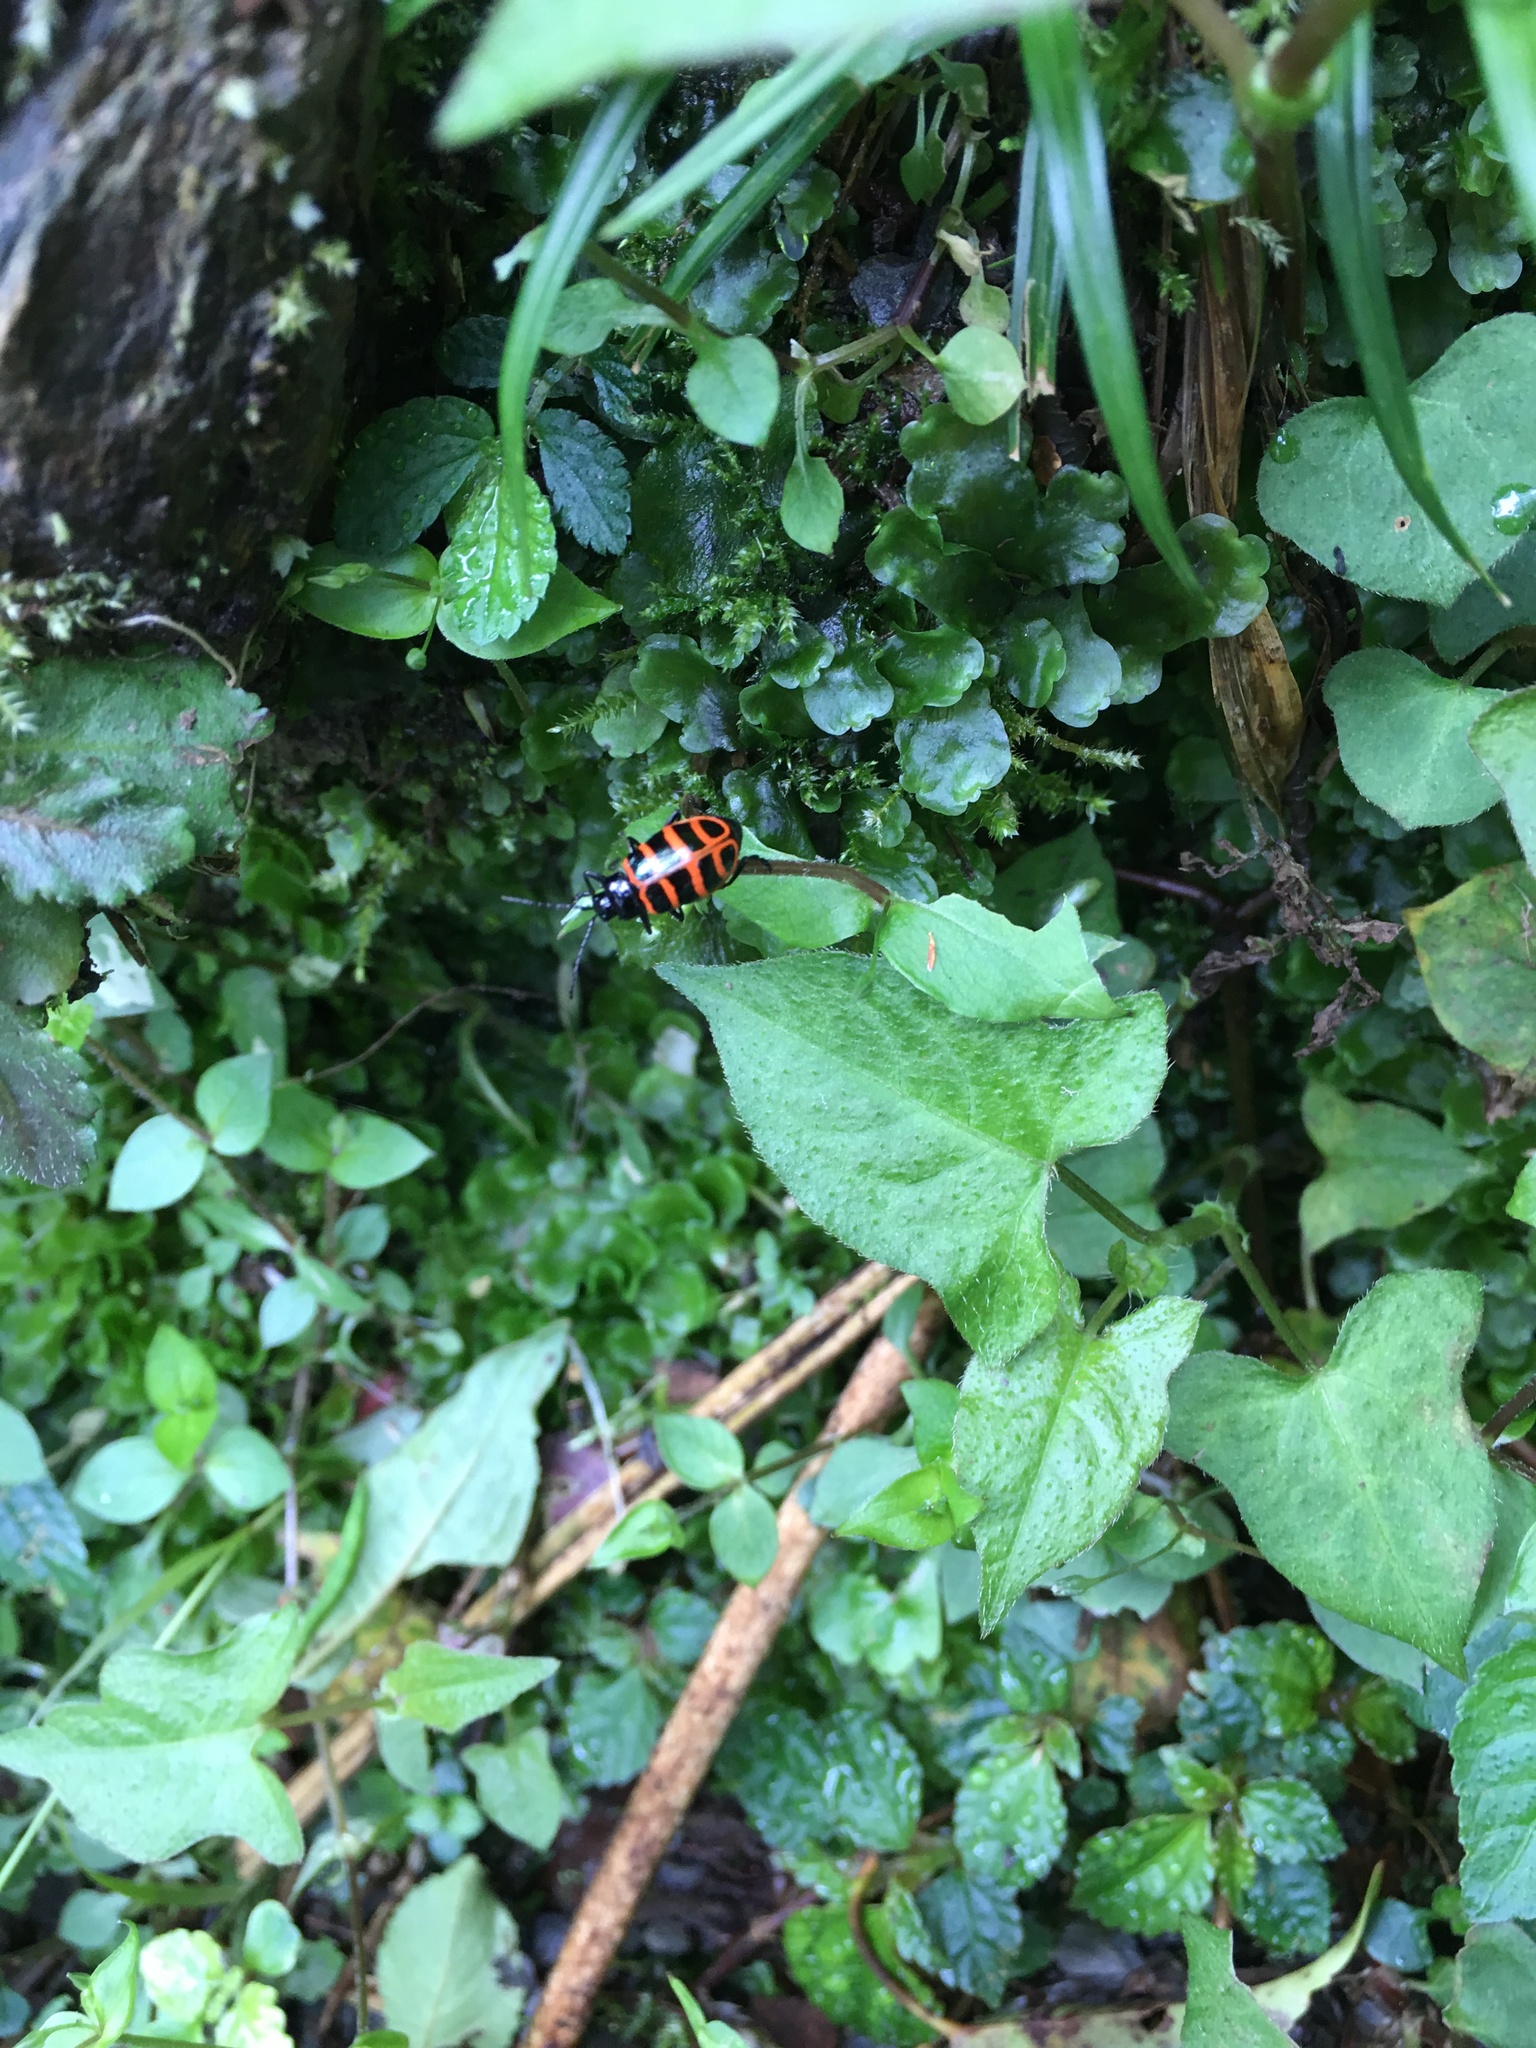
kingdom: Animalia
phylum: Arthropoda
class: Insecta
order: Coleoptera
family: Chrysomelidae
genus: Furusawaia
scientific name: Furusawaia tahsiangi
